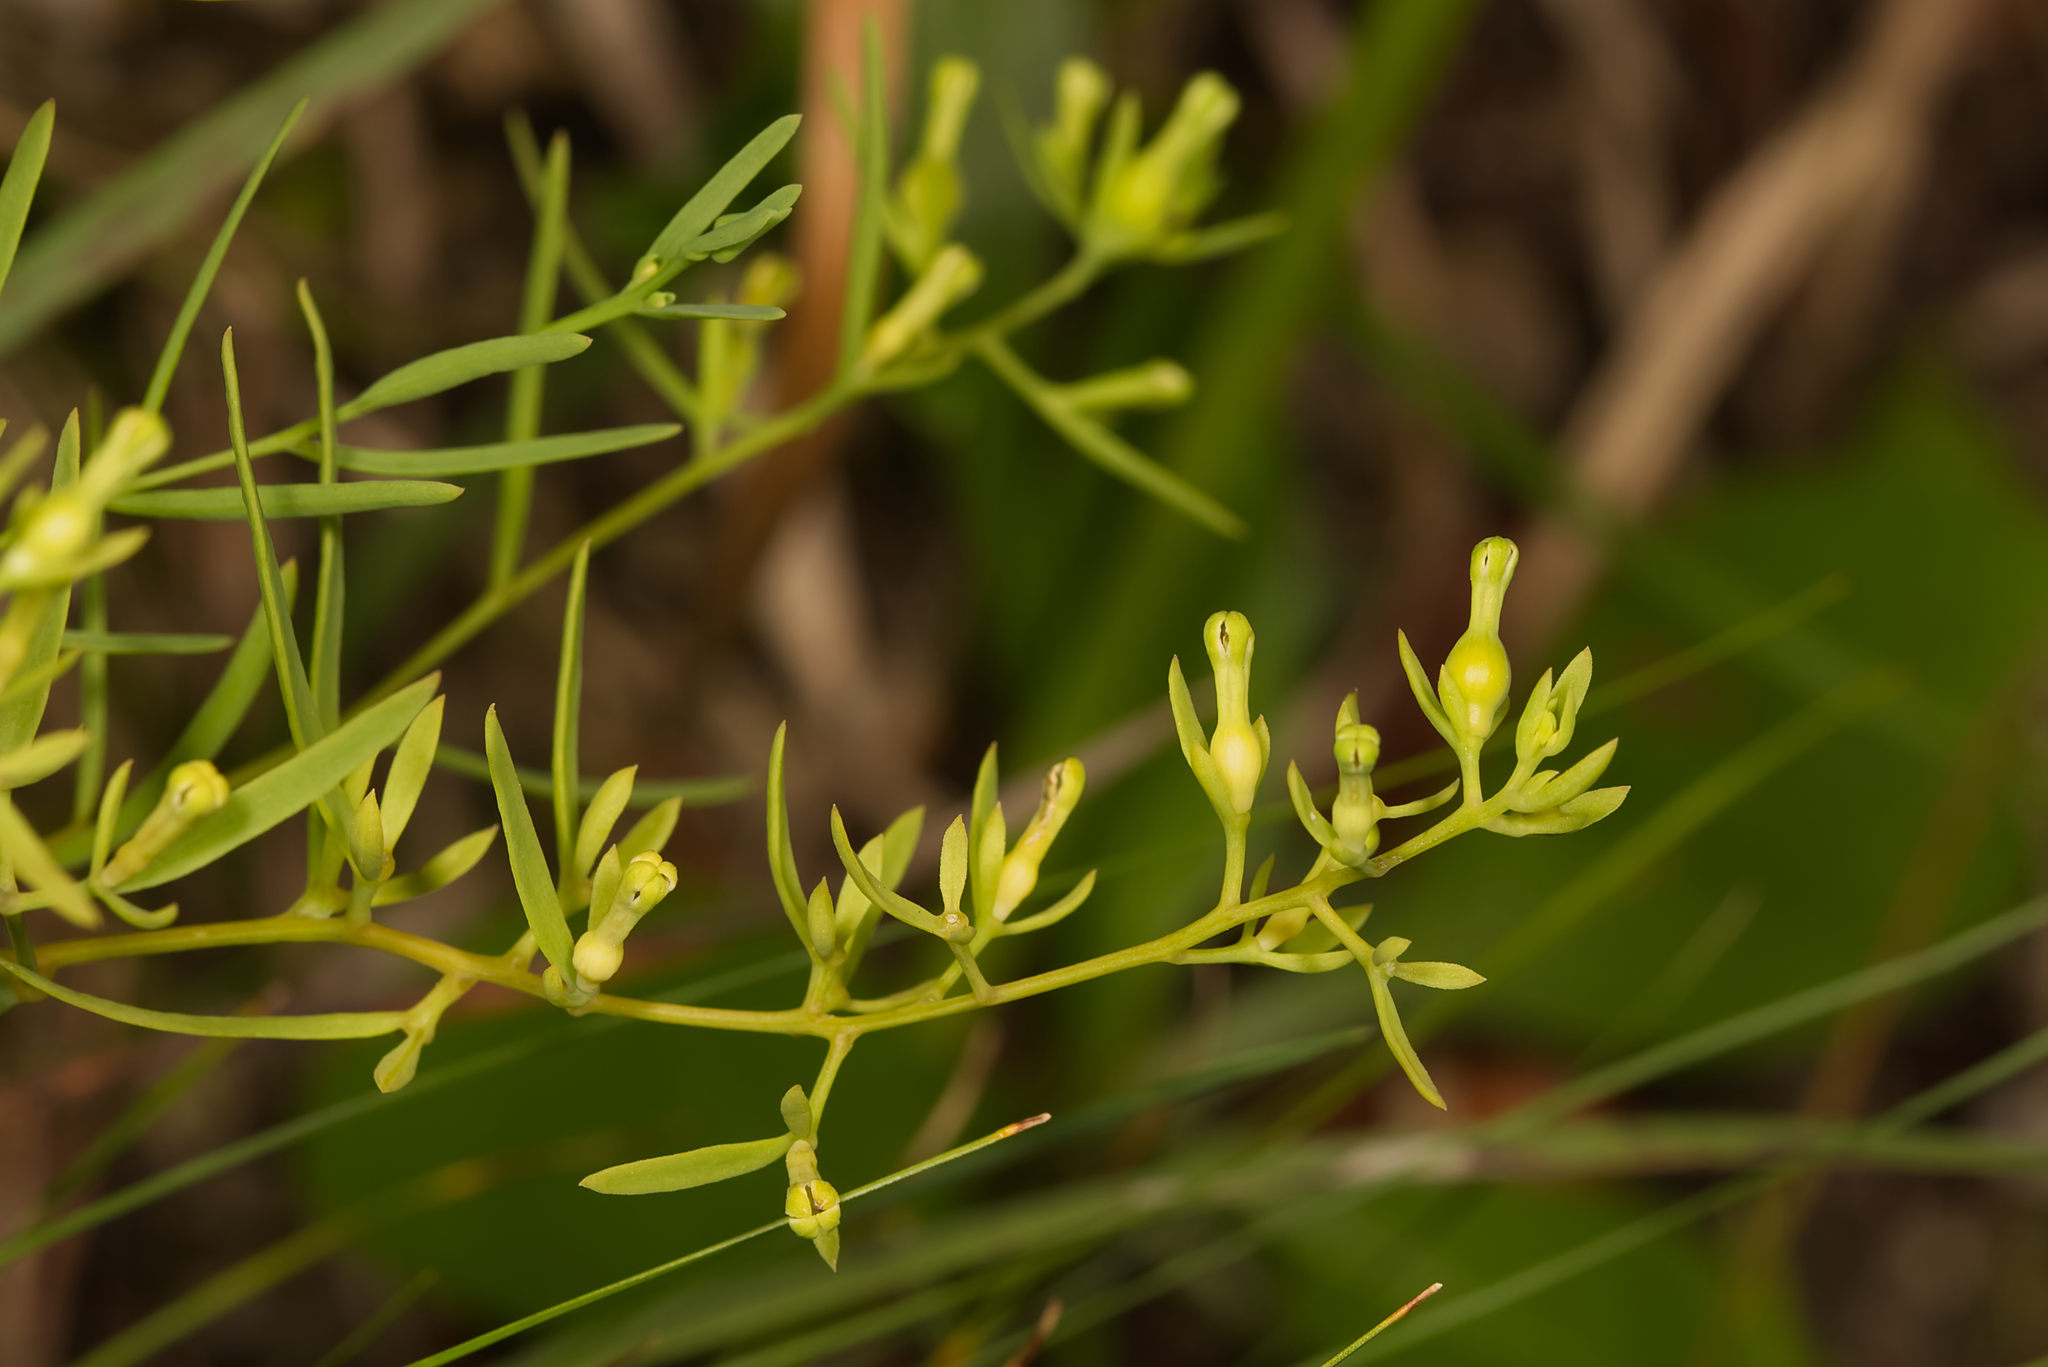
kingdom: Plantae
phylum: Tracheophyta
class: Magnoliopsida
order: Santalales
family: Thesiaceae
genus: Thesium
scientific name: Thesium alpinum
